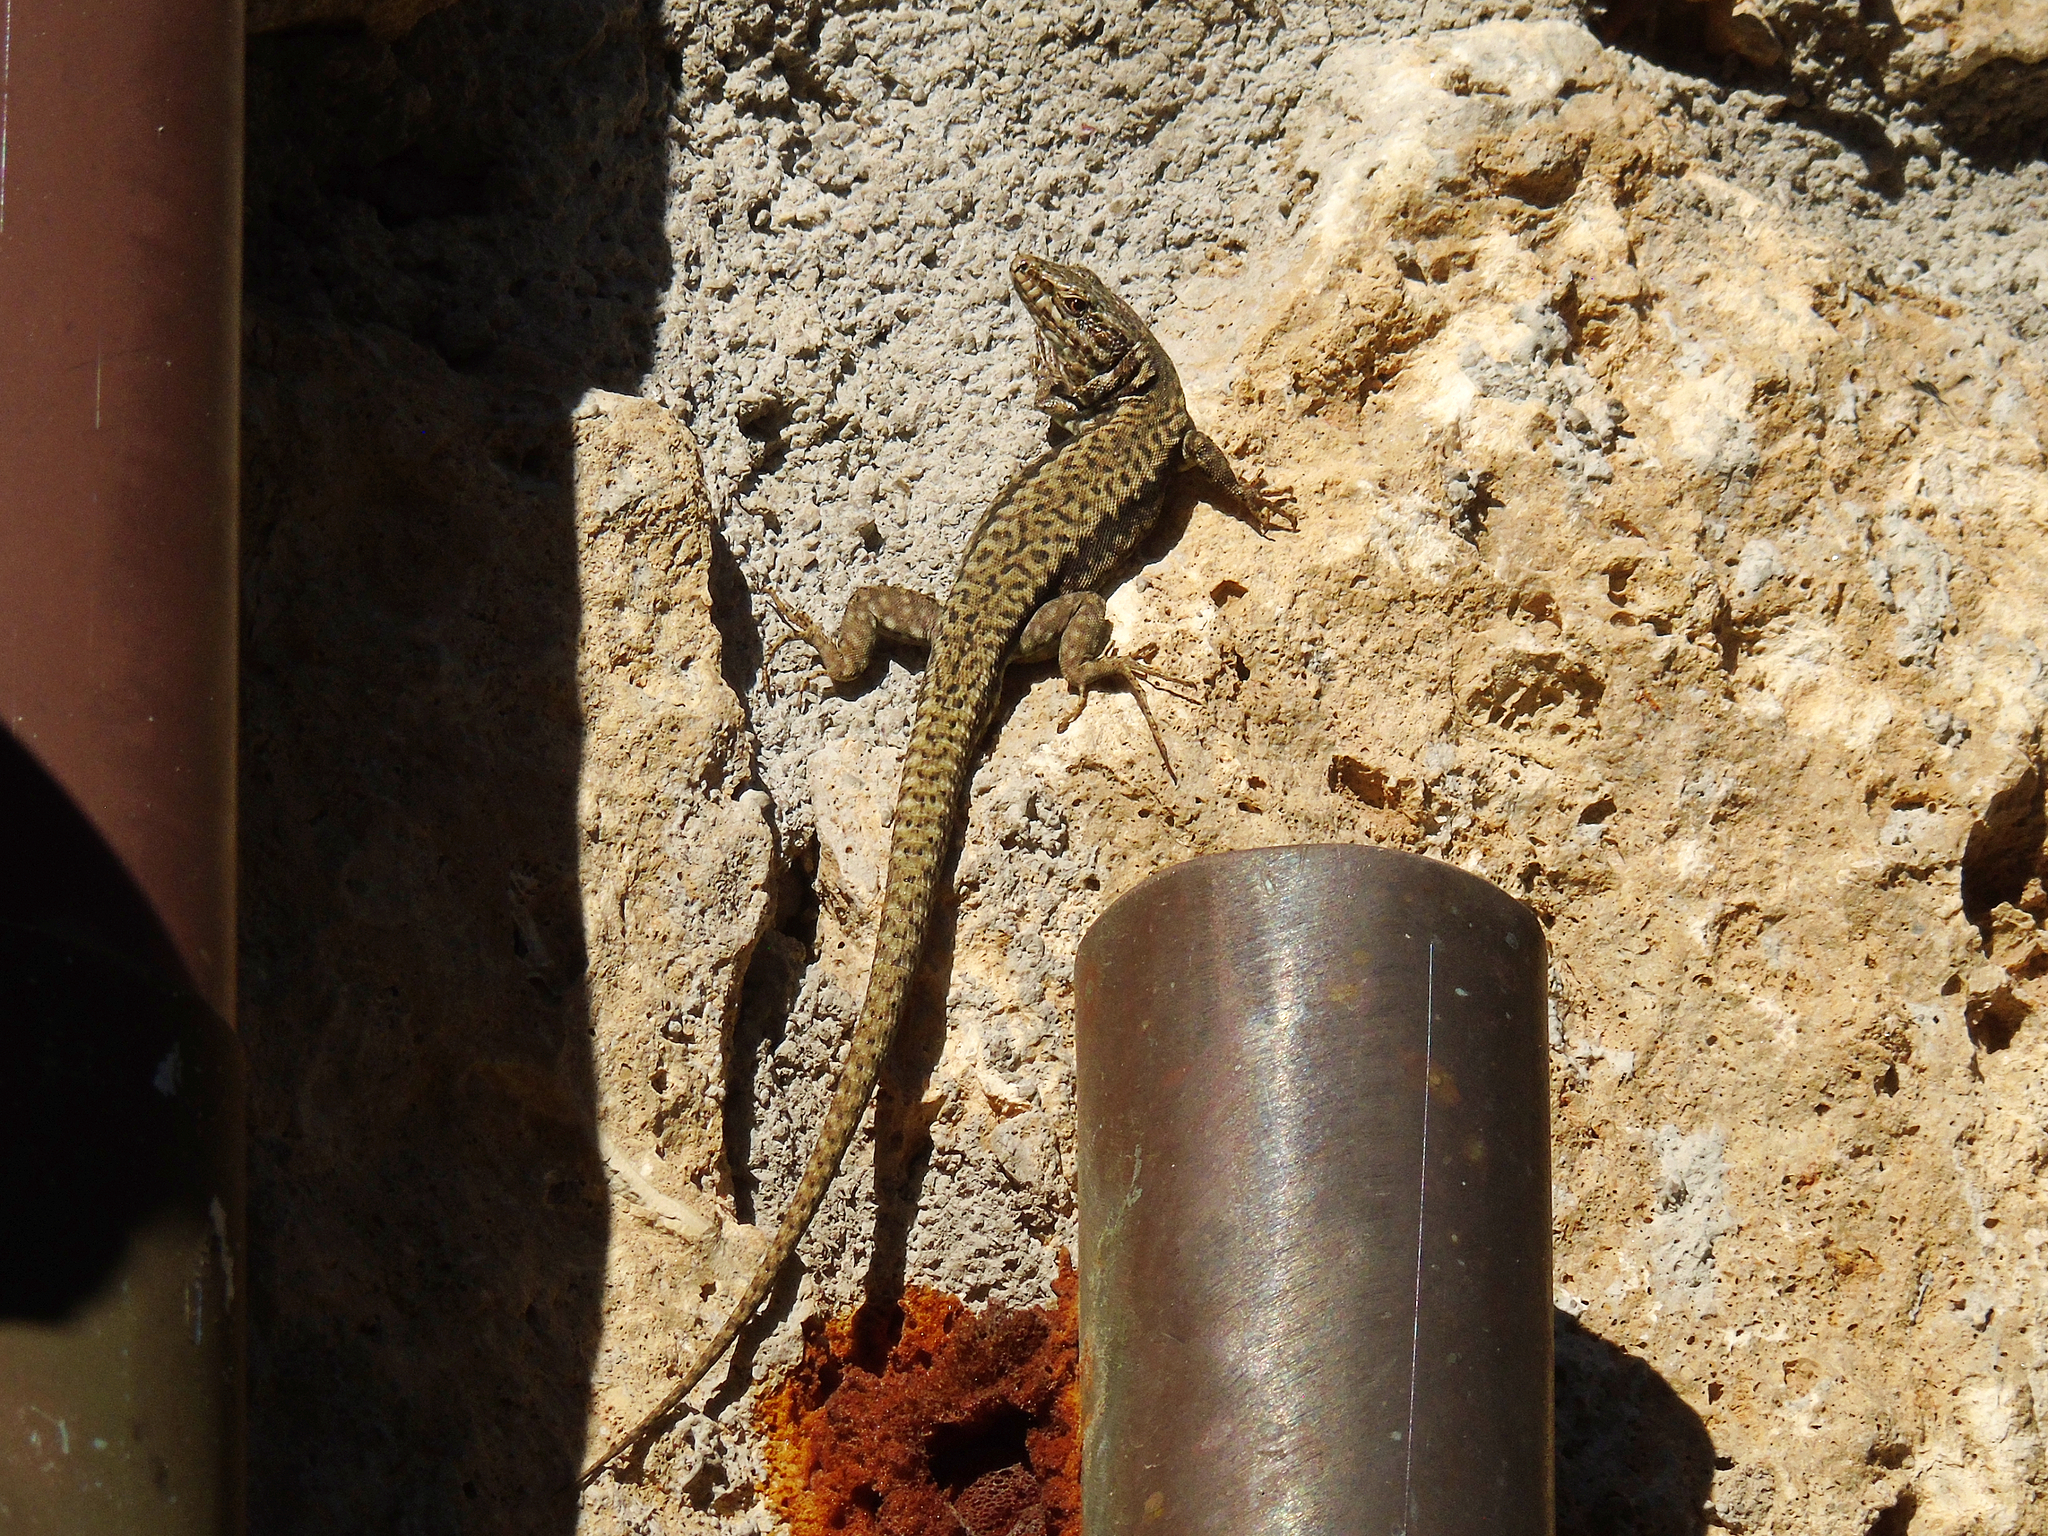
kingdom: Animalia
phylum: Chordata
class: Squamata
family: Lacertidae
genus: Podarcis
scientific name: Podarcis muralis
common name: Common wall lizard
